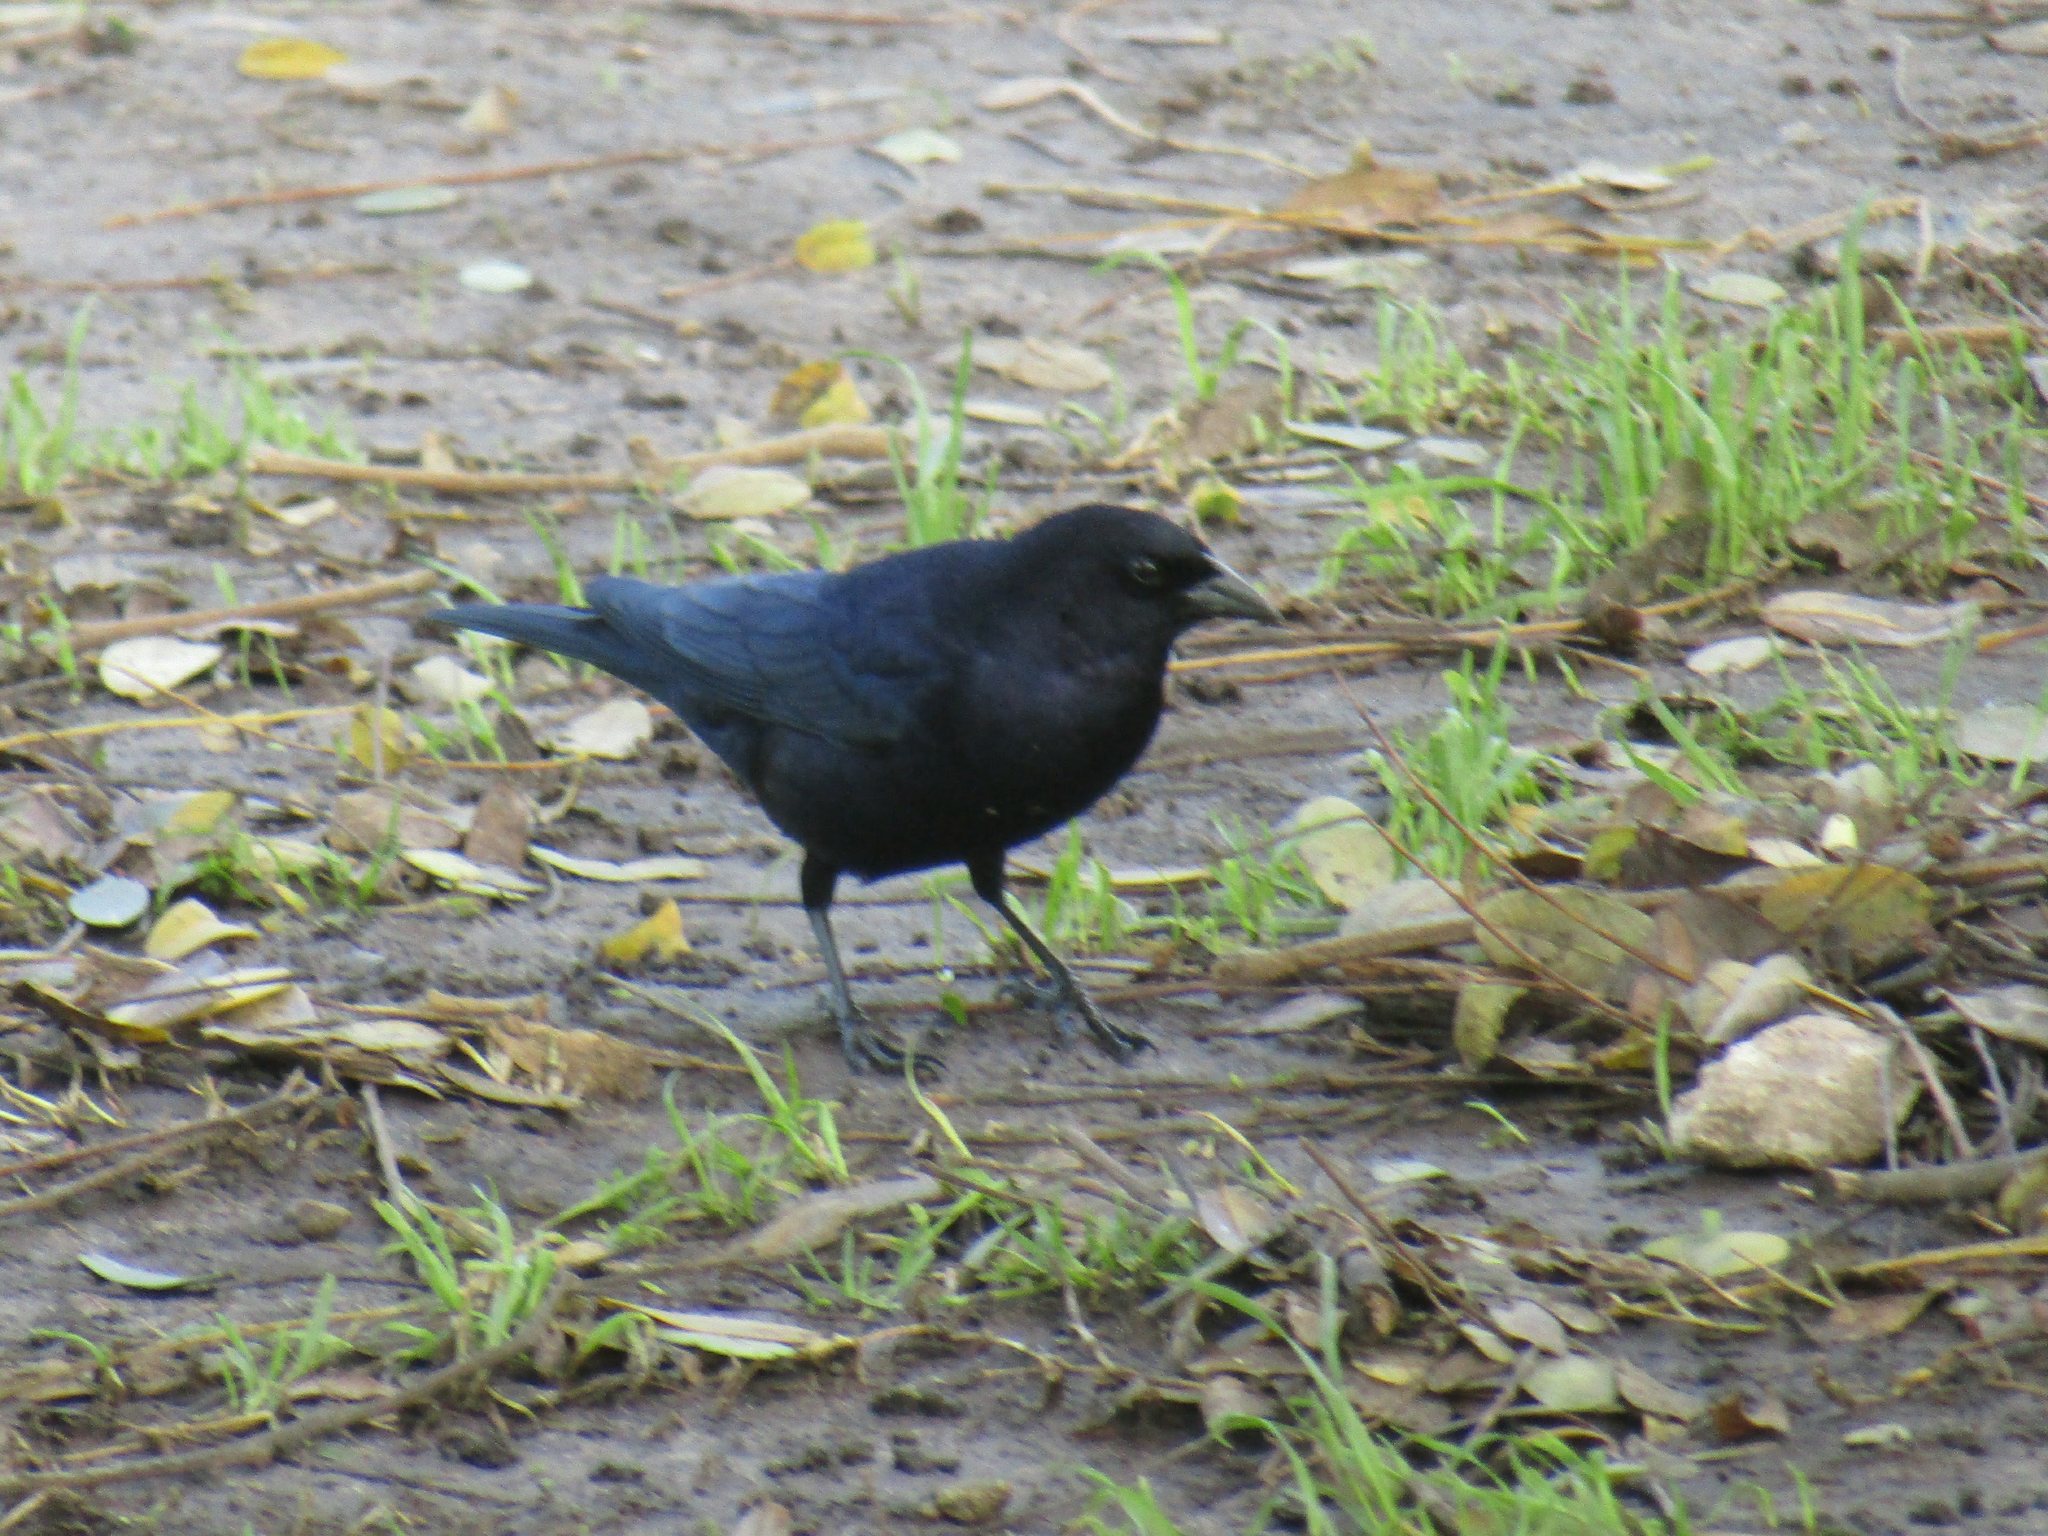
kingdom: Animalia
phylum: Chordata
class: Aves
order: Passeriformes
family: Icteridae
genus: Molothrus
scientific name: Molothrus bonariensis
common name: Shiny cowbird
